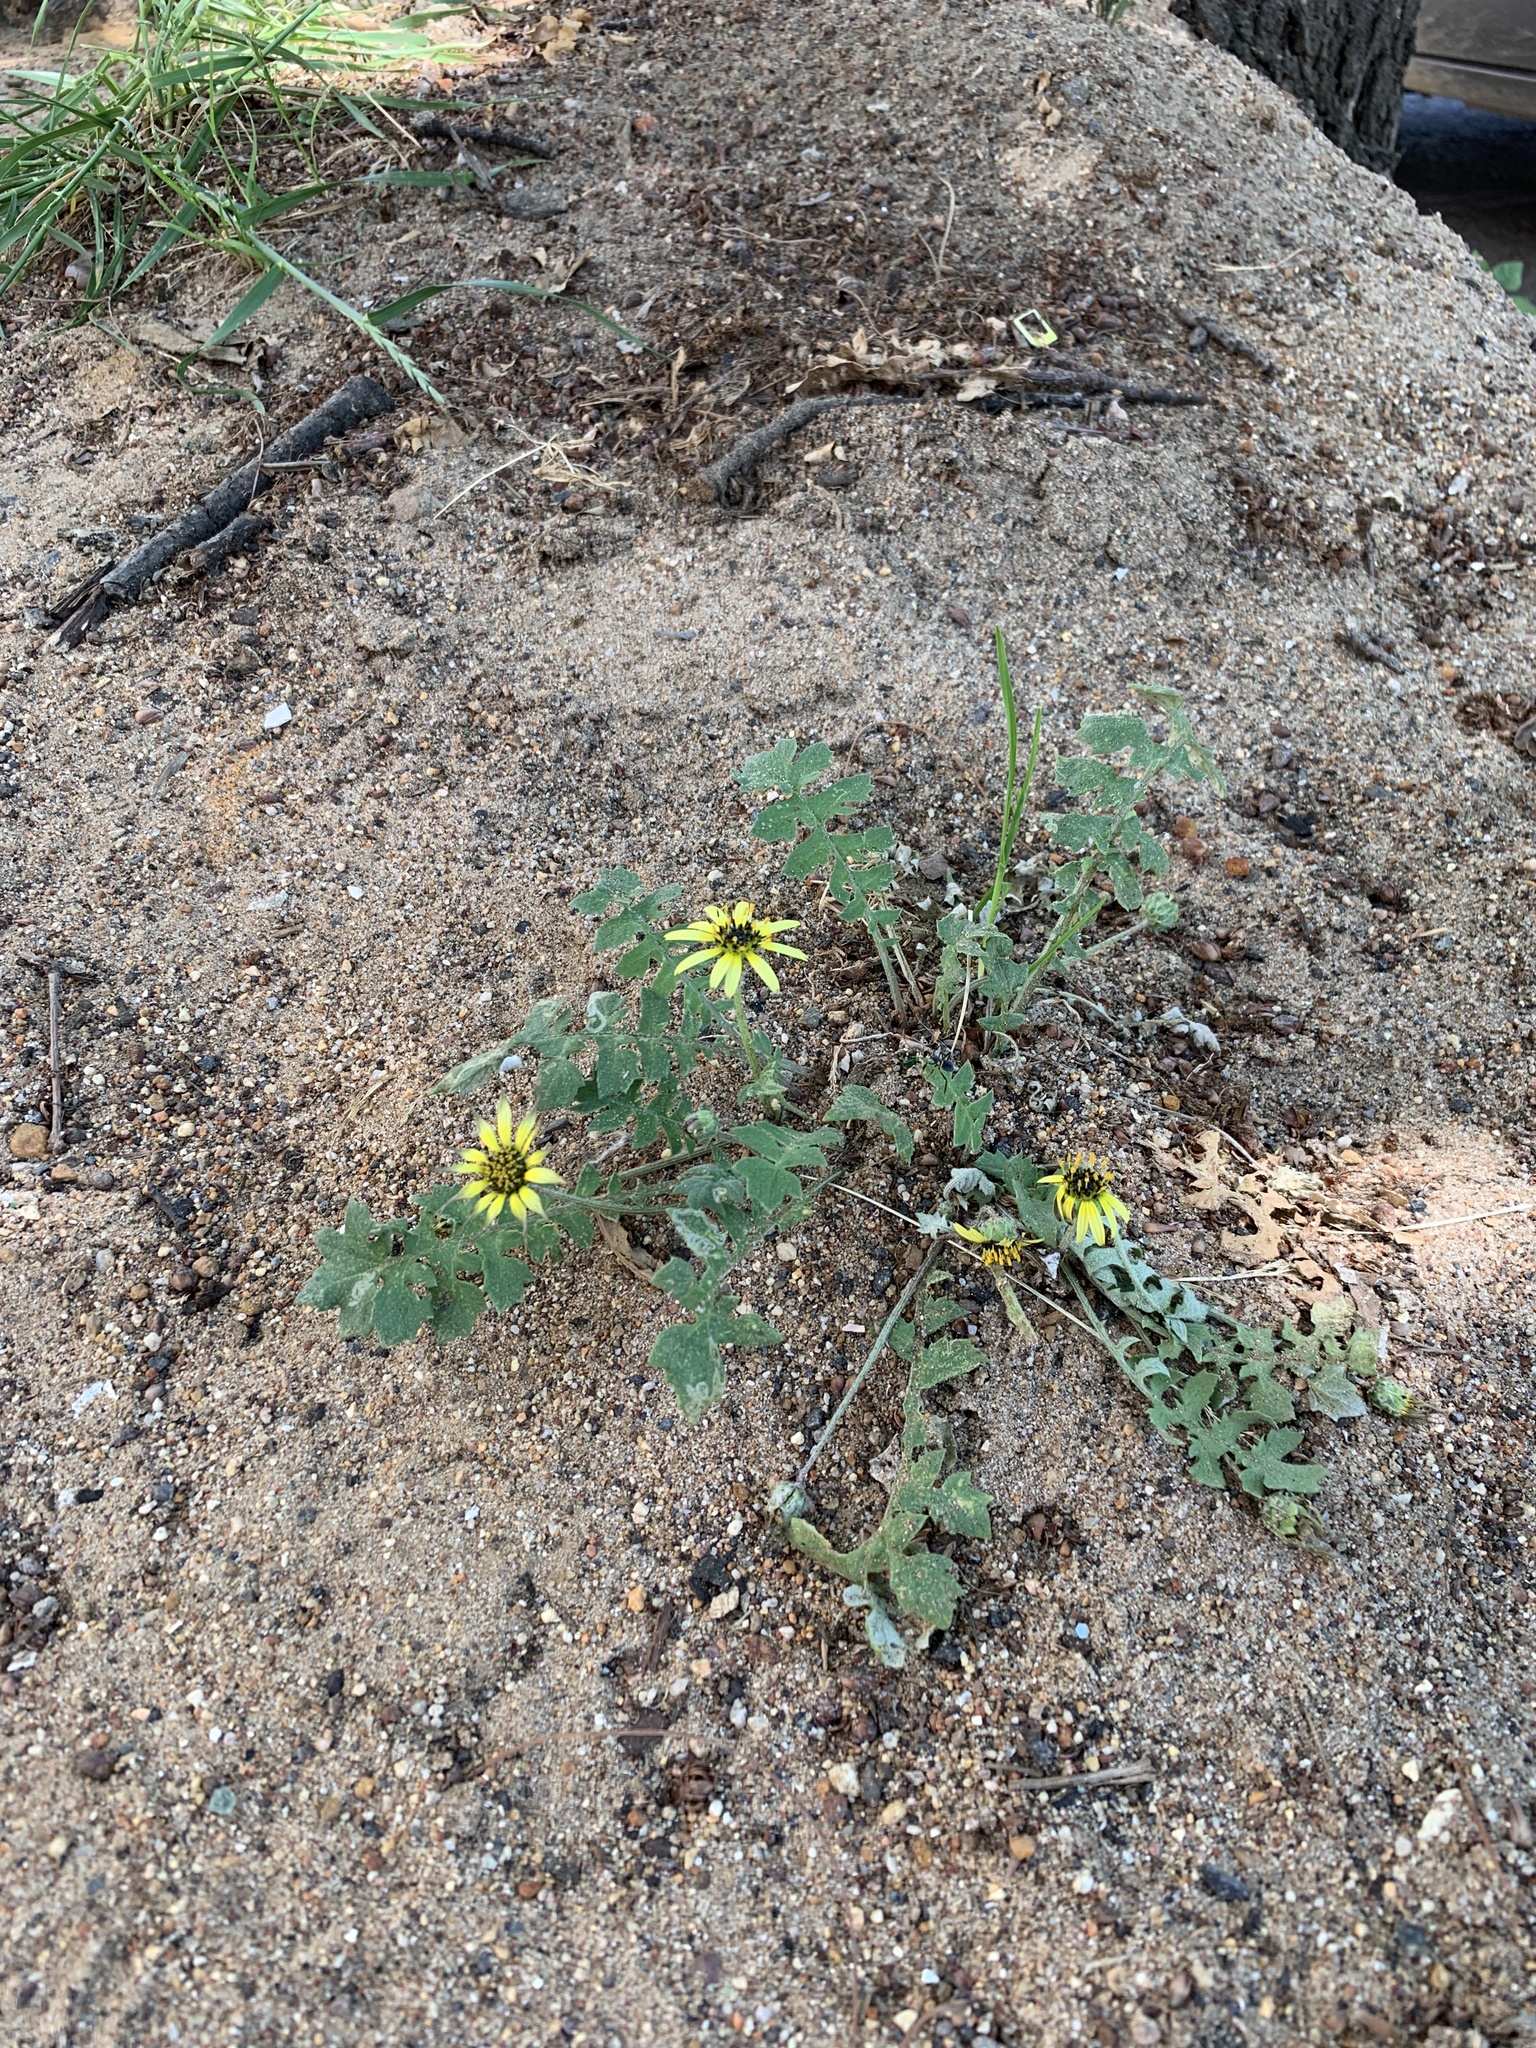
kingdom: Plantae
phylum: Tracheophyta
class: Magnoliopsida
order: Asterales
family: Asteraceae
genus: Arctotheca
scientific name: Arctotheca calendula
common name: Capeweed
